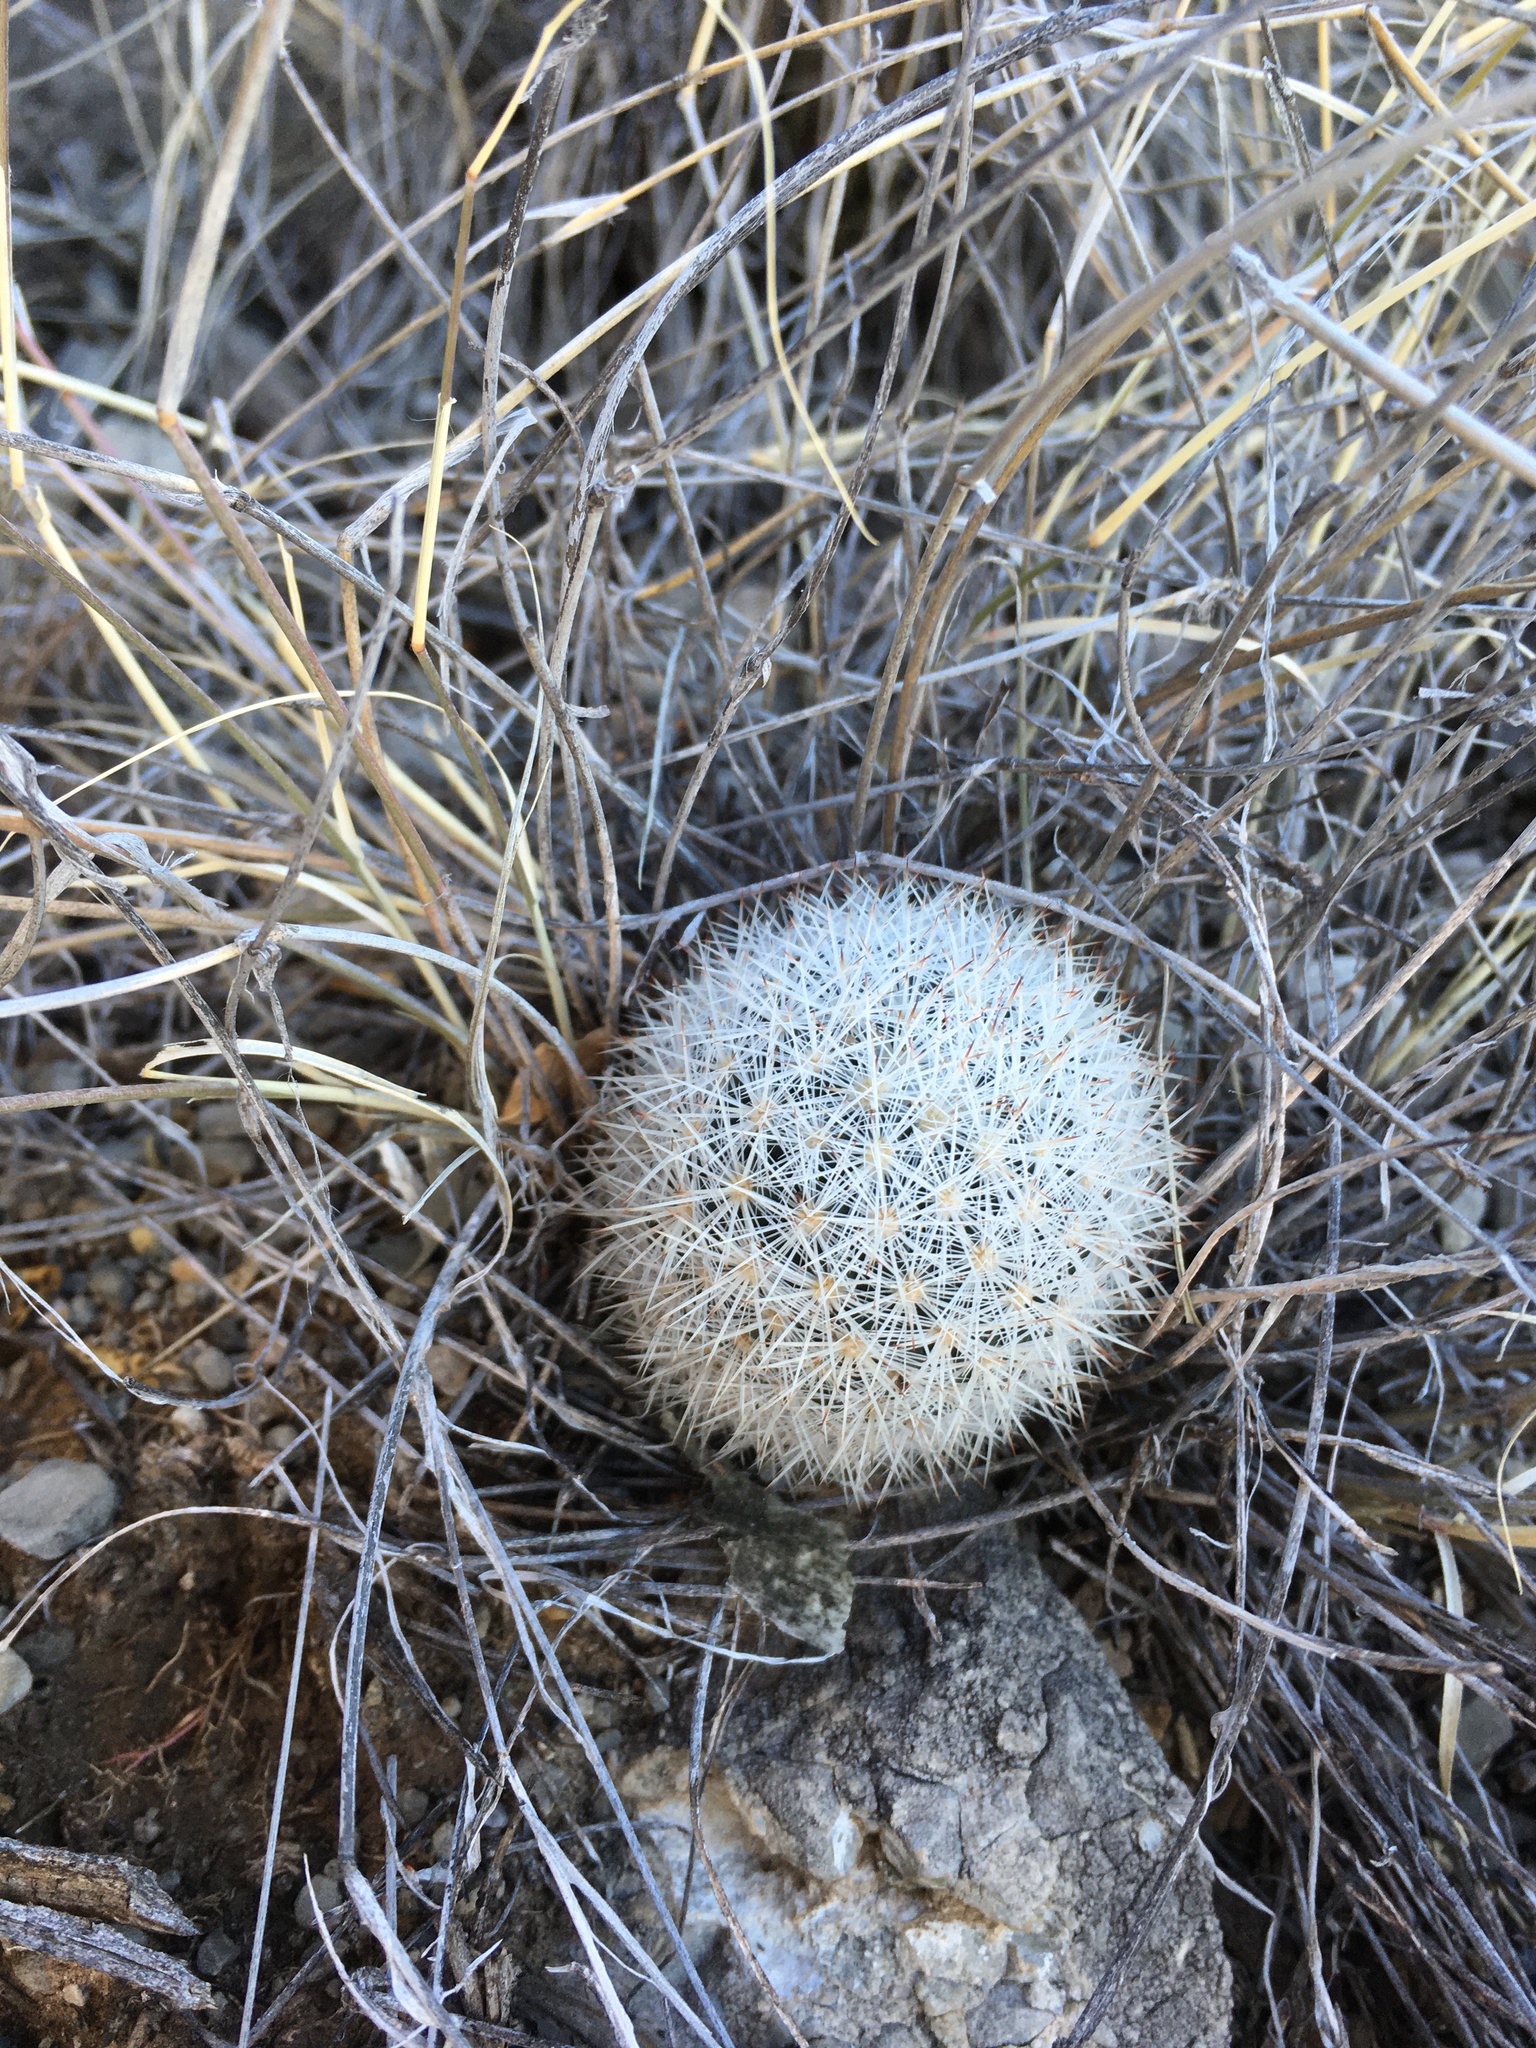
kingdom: Plantae
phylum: Tracheophyta
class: Magnoliopsida
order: Caryophyllales
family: Cactaceae
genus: Pelecyphora
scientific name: Pelecyphora sneedii
